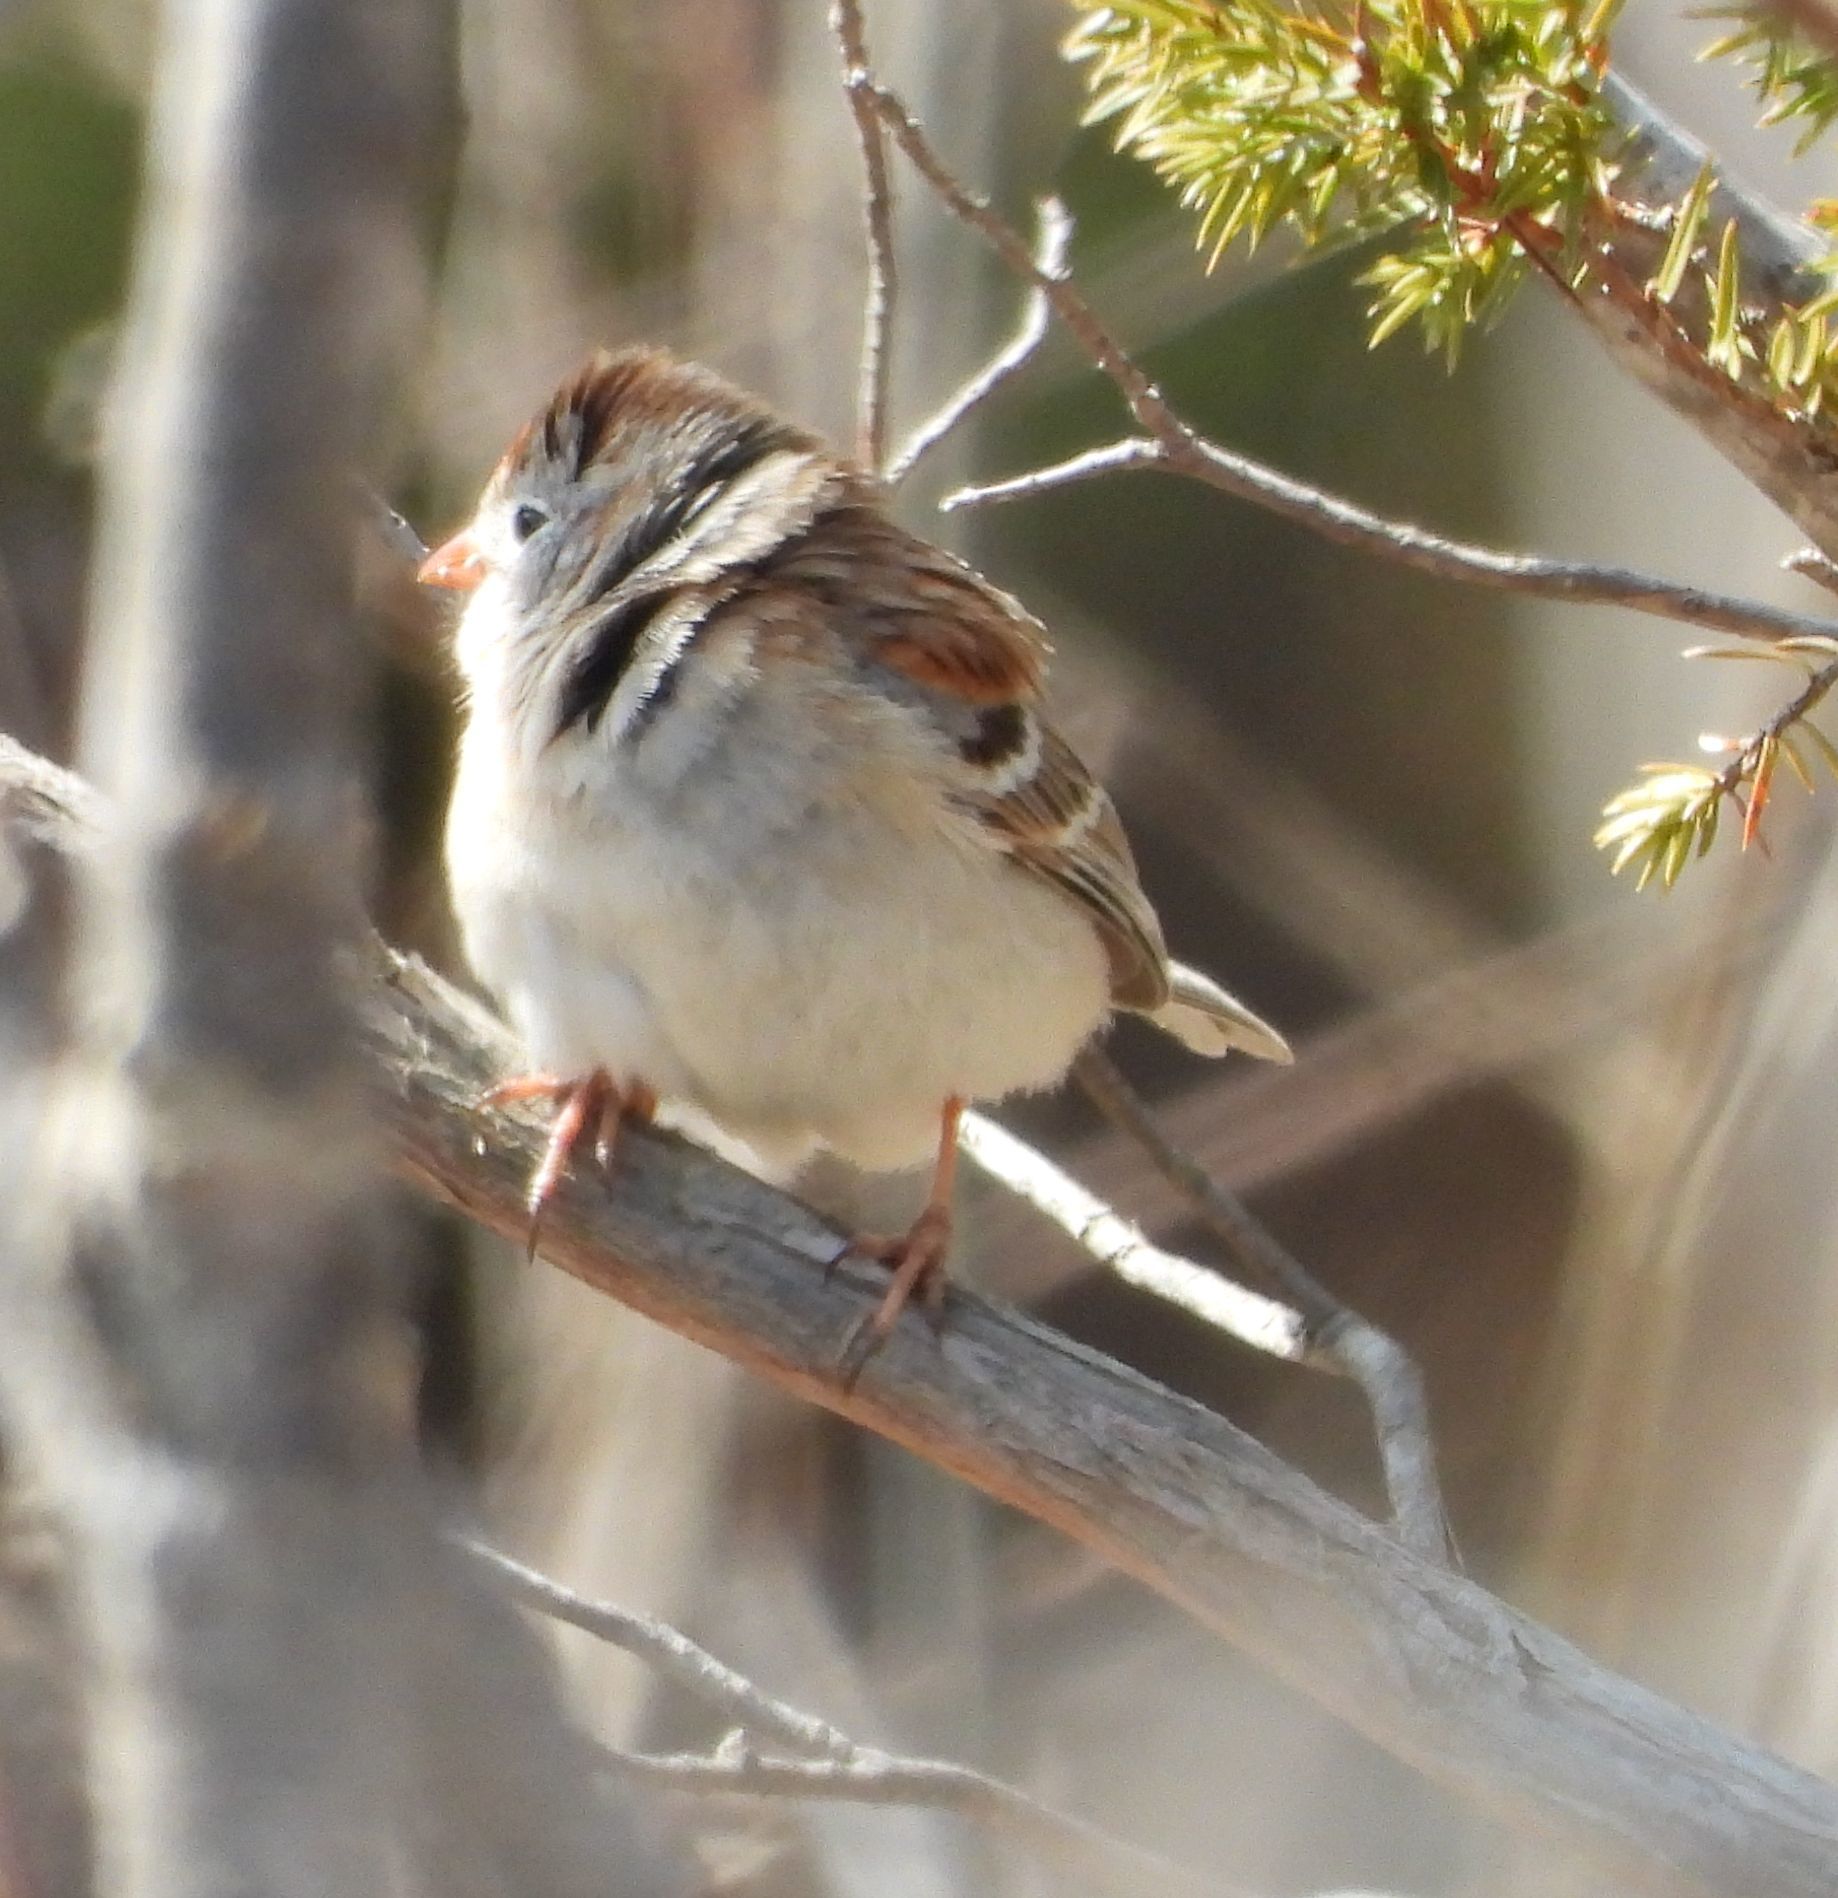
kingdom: Animalia
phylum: Chordata
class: Aves
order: Passeriformes
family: Passerellidae
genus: Spizella
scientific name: Spizella pusilla
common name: Field sparrow
